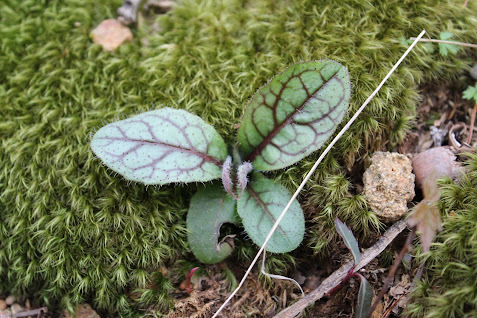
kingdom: Plantae
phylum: Tracheophyta
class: Magnoliopsida
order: Asterales
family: Asteraceae
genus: Hieracium
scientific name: Hieracium venosum
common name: Rattlesnake hawkweed
